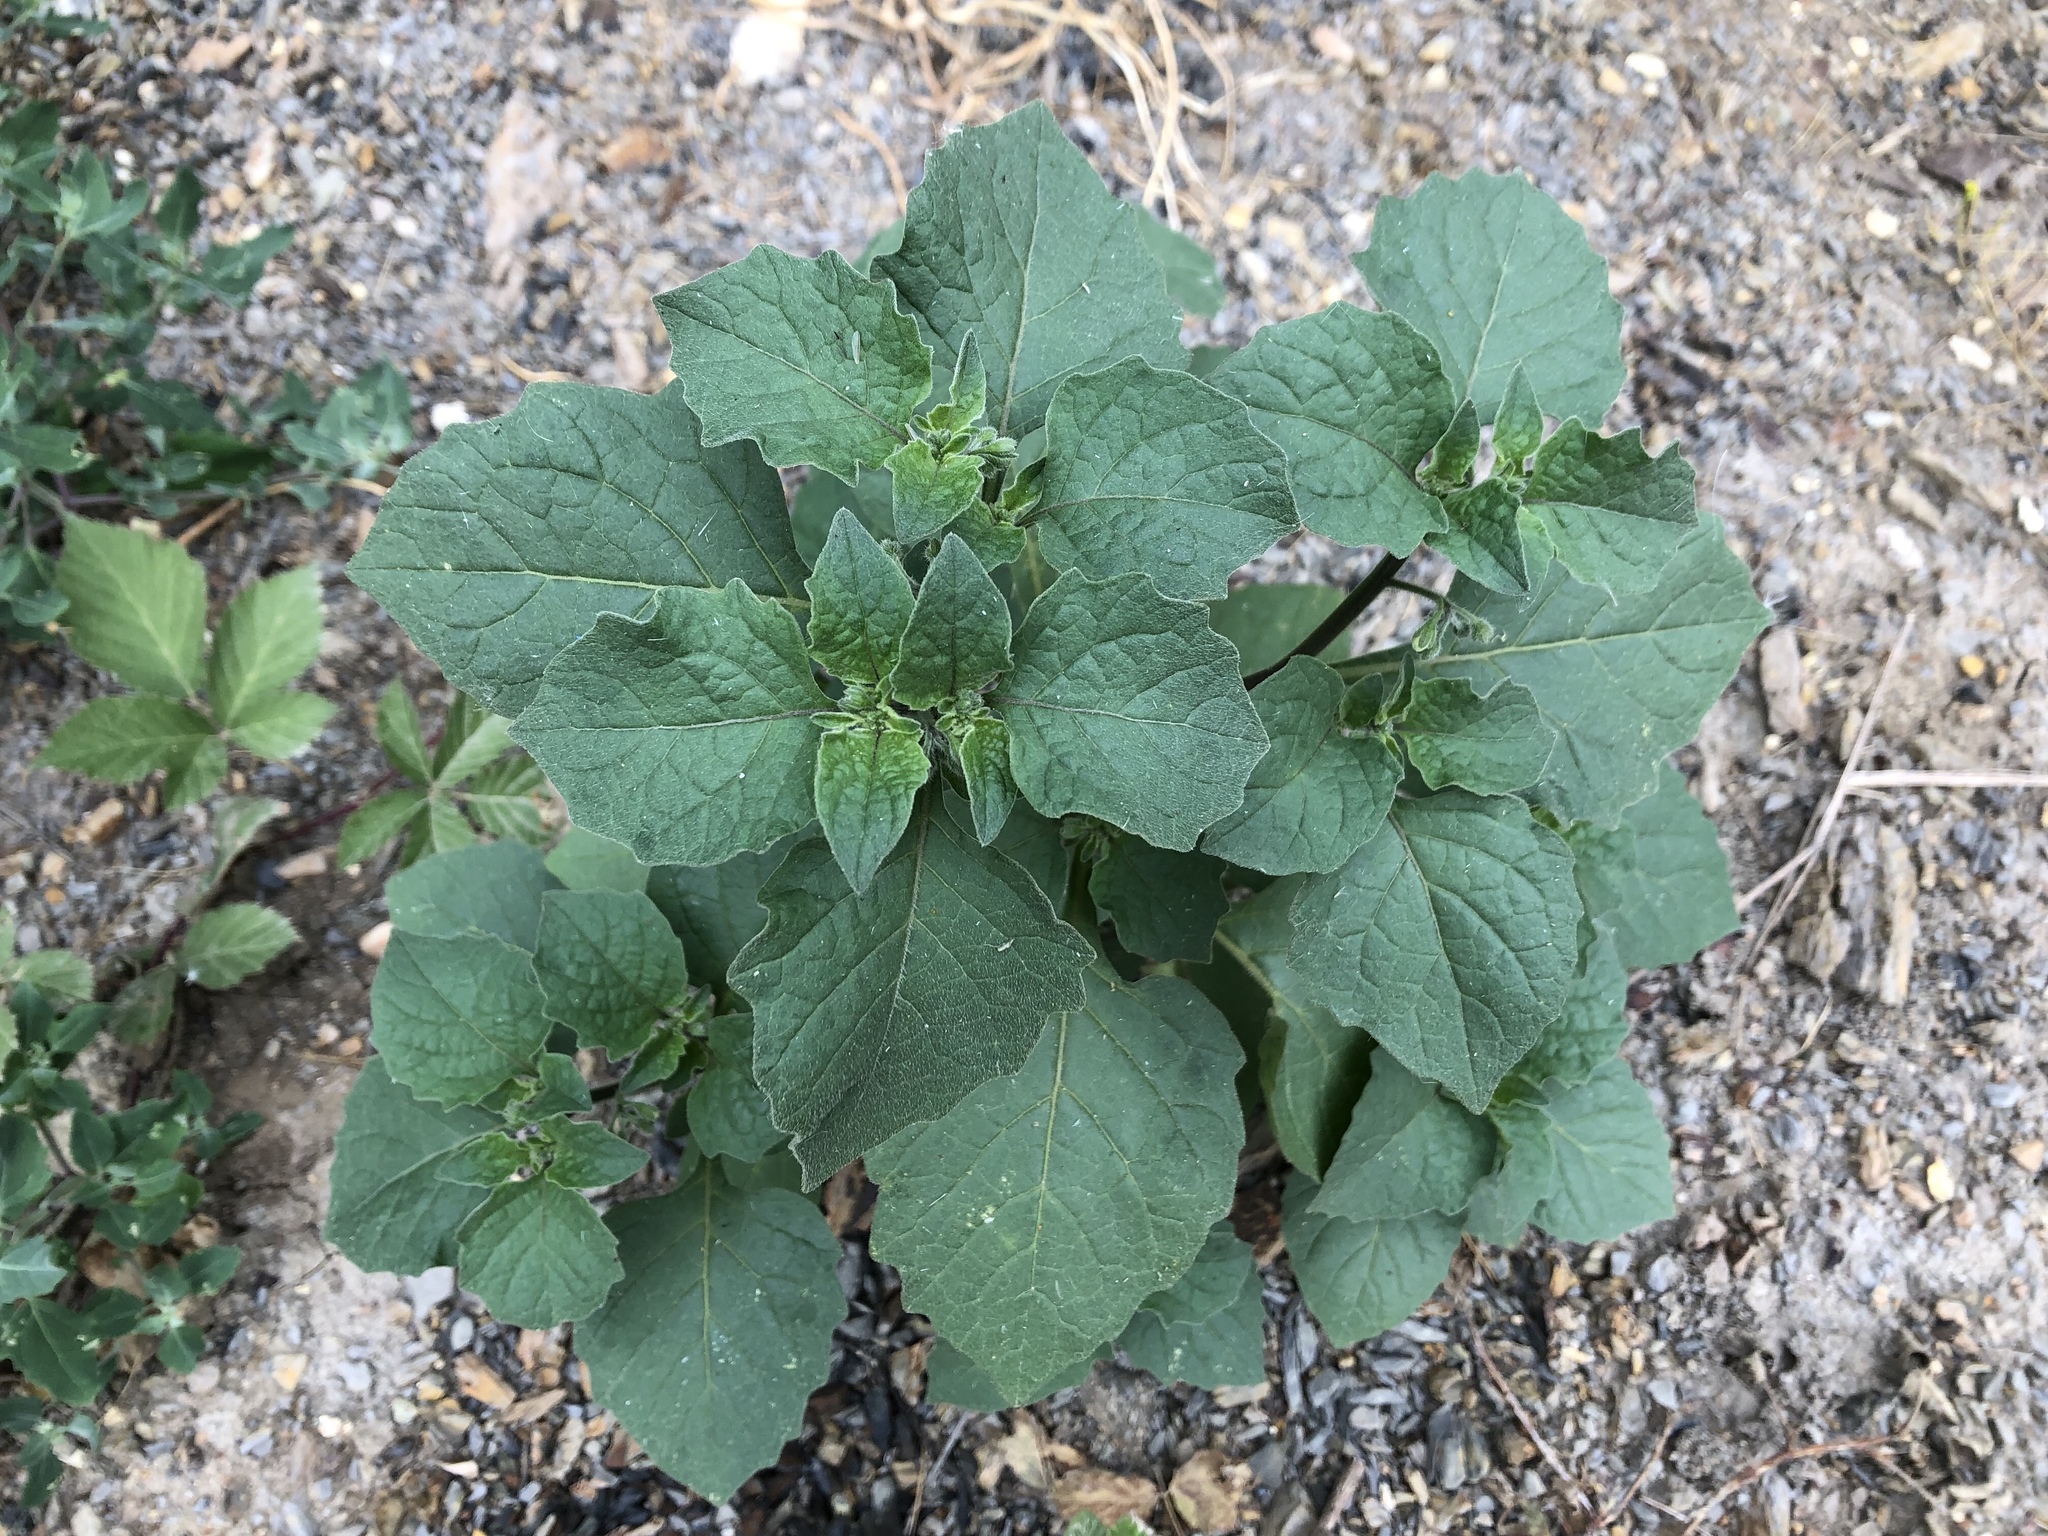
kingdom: Plantae
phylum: Tracheophyta
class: Magnoliopsida
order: Solanales
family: Solanaceae
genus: Solanum
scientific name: Solanum nigrum
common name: Black nightshade
